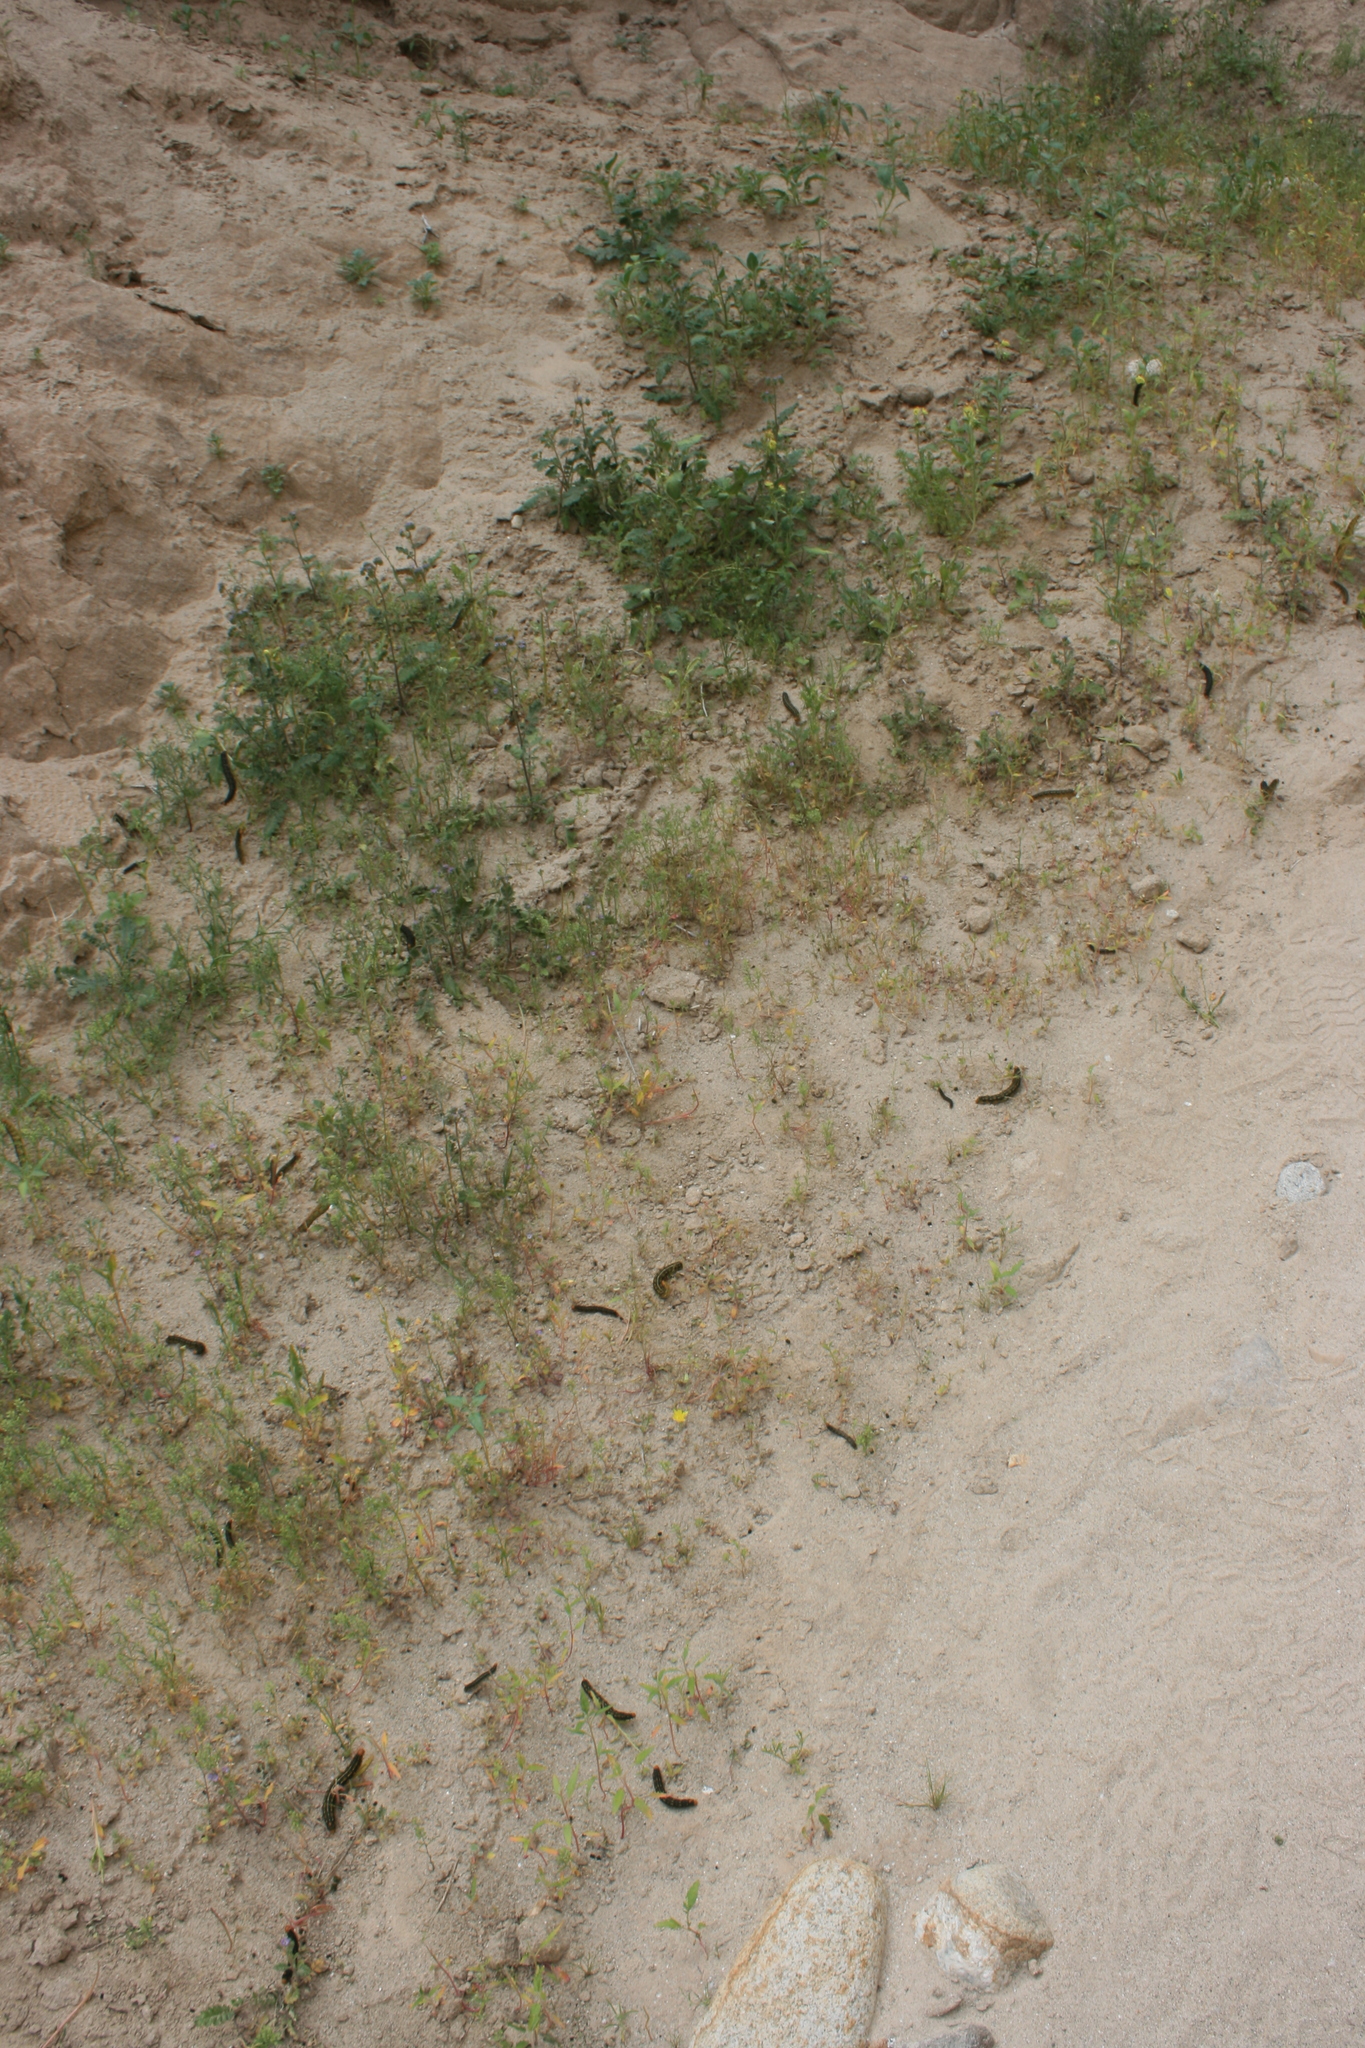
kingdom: Animalia
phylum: Arthropoda
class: Insecta
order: Lepidoptera
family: Sphingidae
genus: Hyles
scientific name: Hyles lineata
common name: White-lined sphinx
